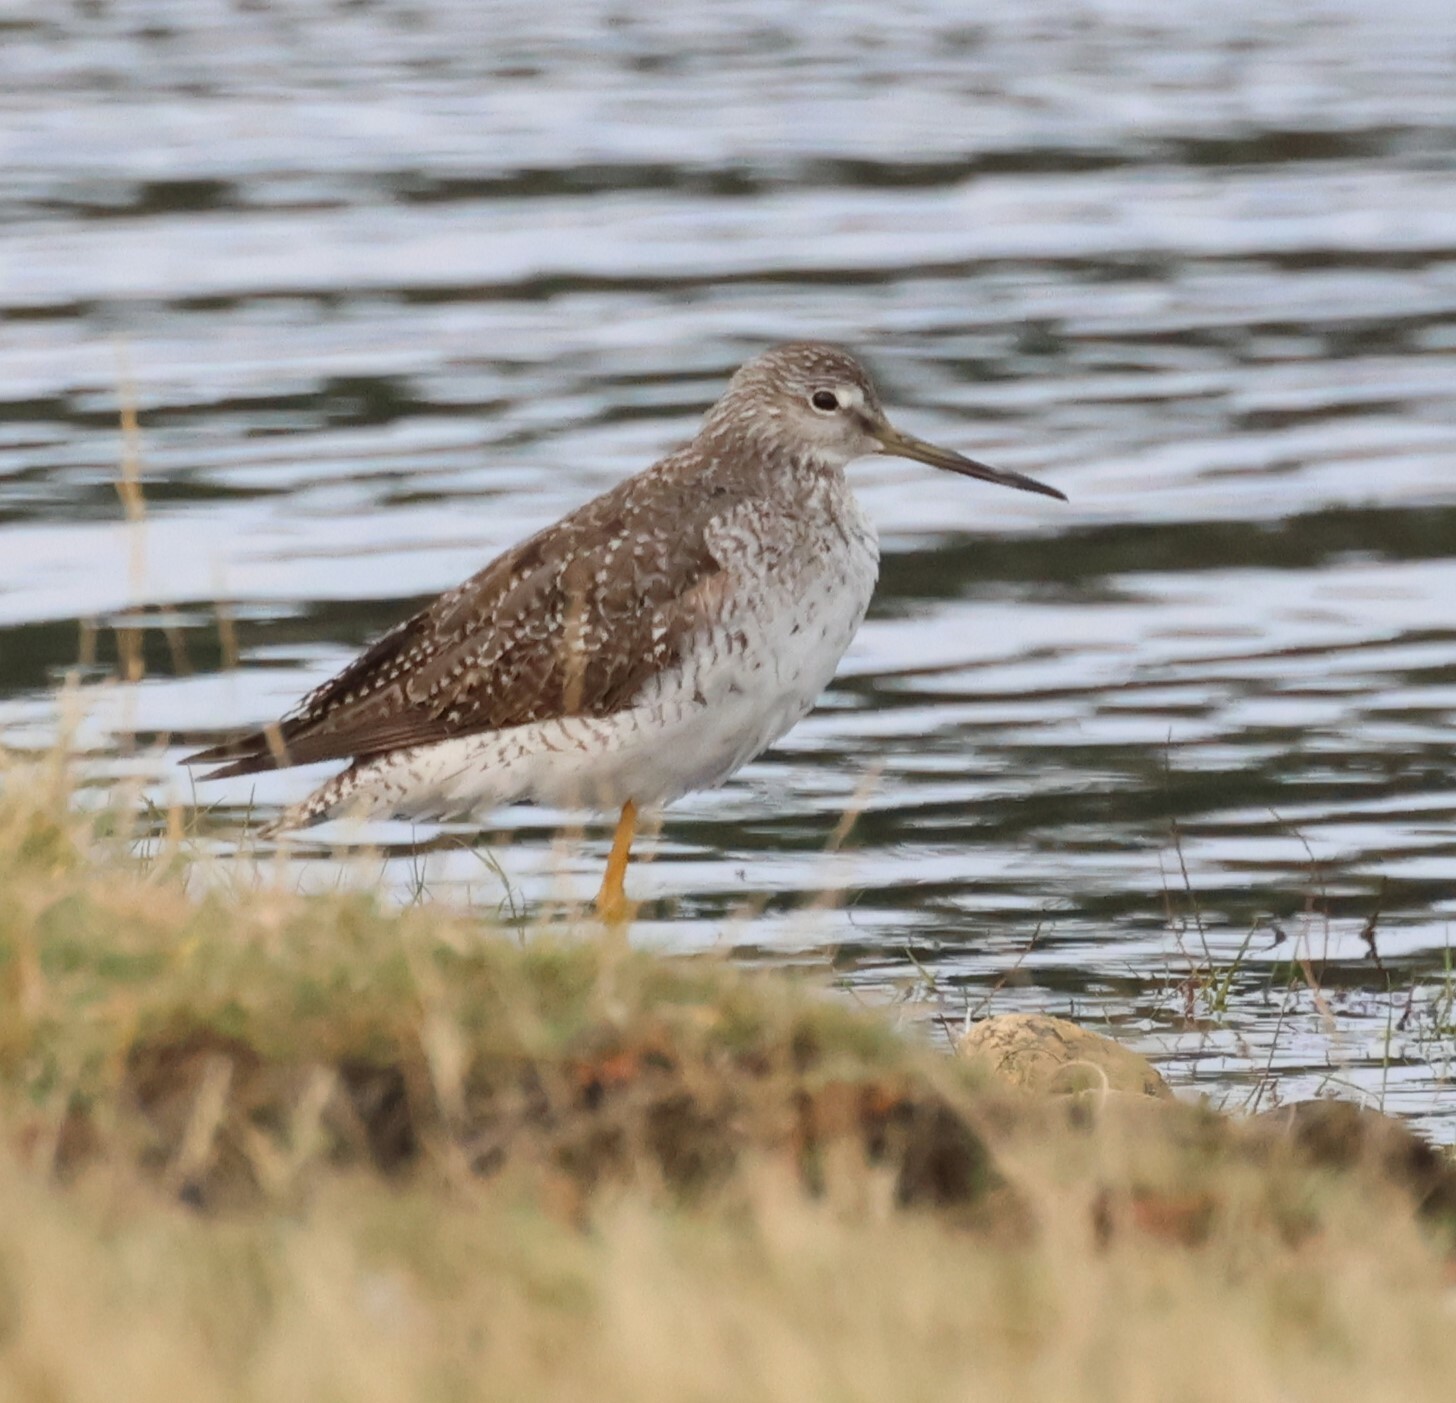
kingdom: Animalia
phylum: Chordata
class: Aves
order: Charadriiformes
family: Scolopacidae
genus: Tringa
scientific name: Tringa melanoleuca
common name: Greater yellowlegs
